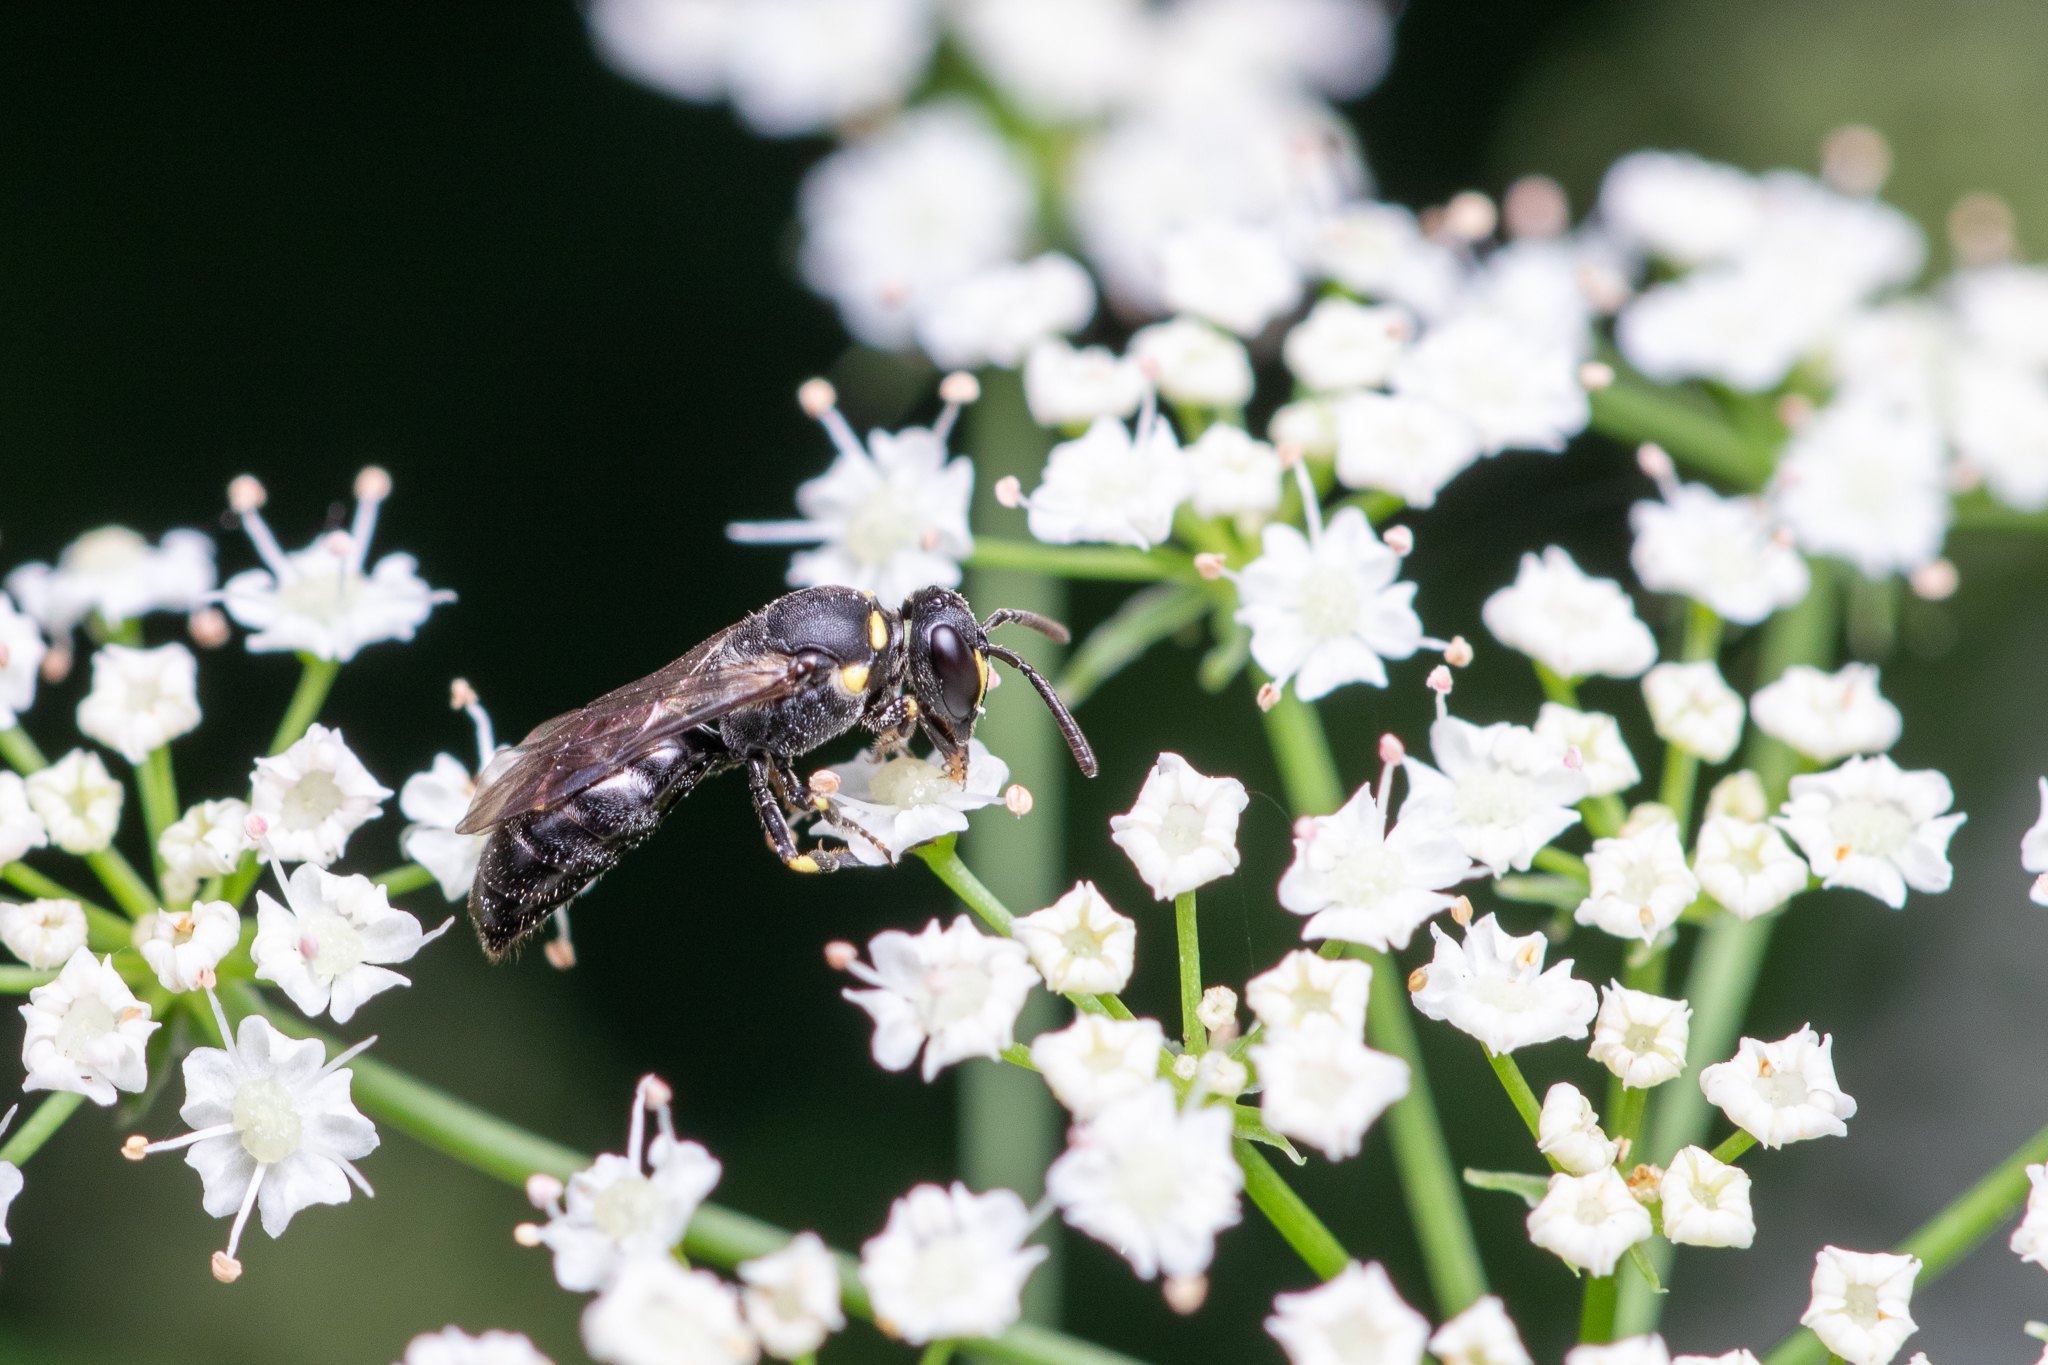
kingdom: Animalia
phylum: Arthropoda
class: Insecta
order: Hymenoptera
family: Colletidae
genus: Hylaeus
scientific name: Hylaeus modestus
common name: Yellow-faced bee
